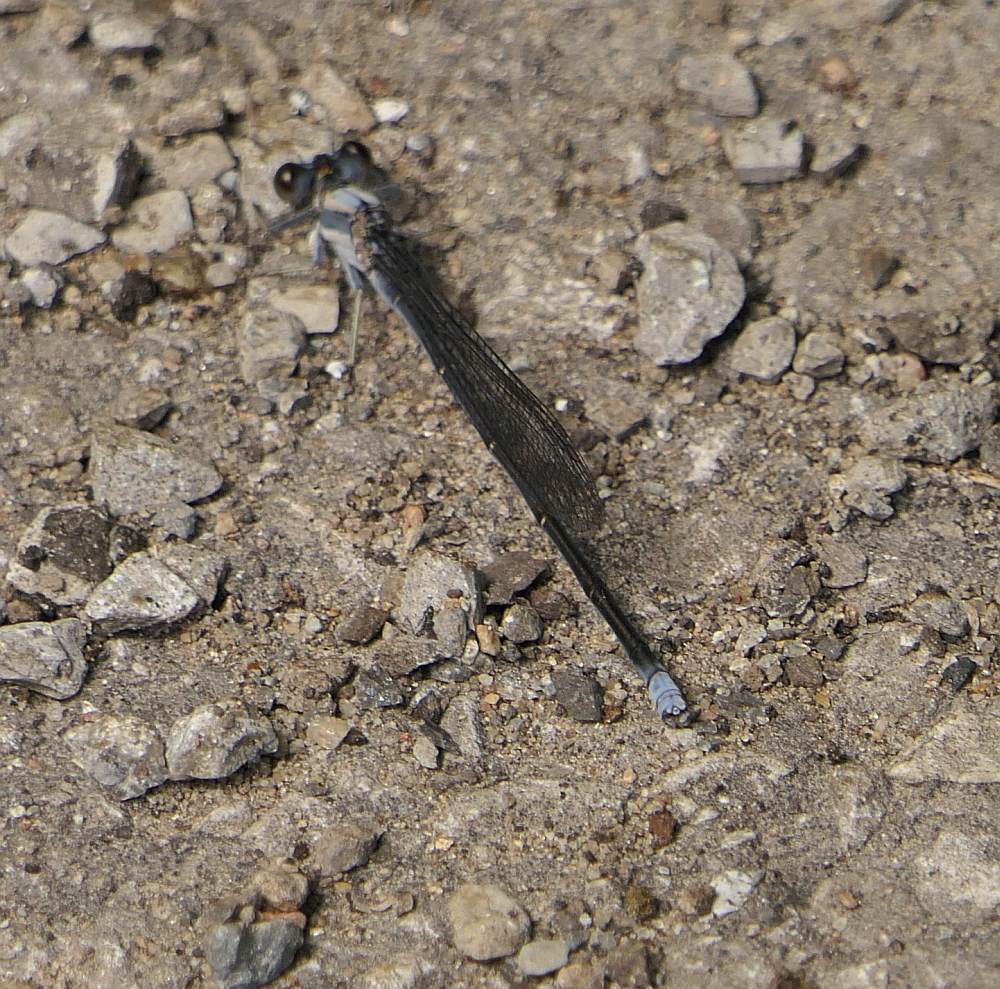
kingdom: Animalia
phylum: Arthropoda
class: Insecta
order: Odonata
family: Coenagrionidae
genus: Argia
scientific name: Argia moesta
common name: Powdered dancer
